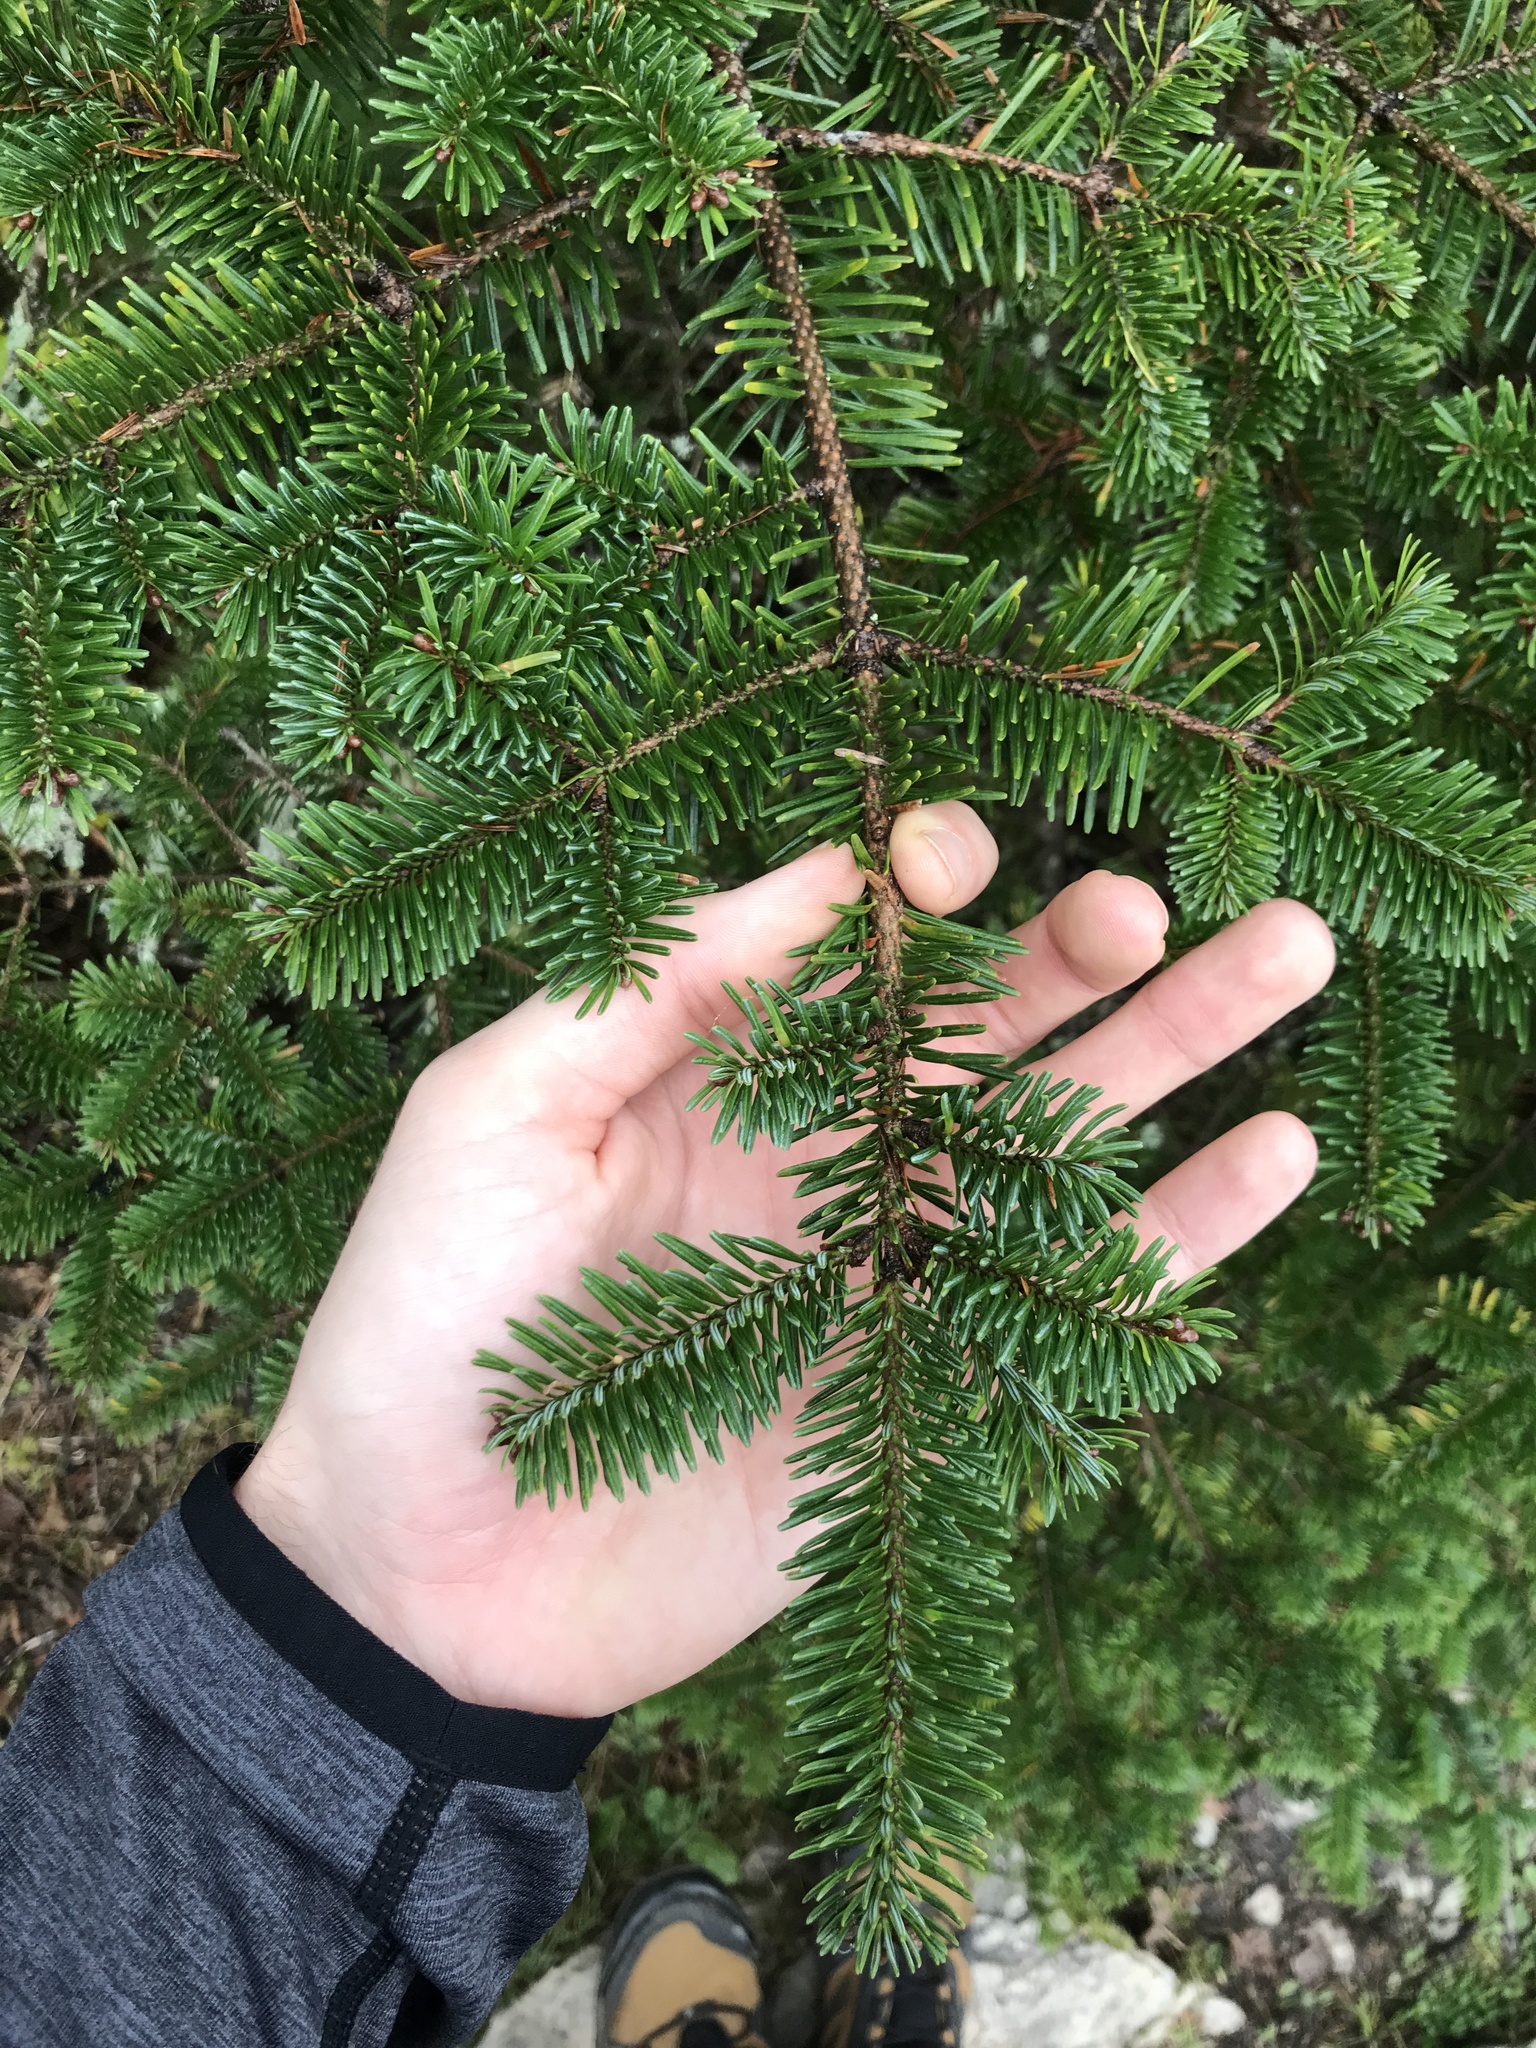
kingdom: Plantae
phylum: Tracheophyta
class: Pinopsida
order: Pinales
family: Pinaceae
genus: Abies
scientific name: Abies balsamea
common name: Balsam fir
